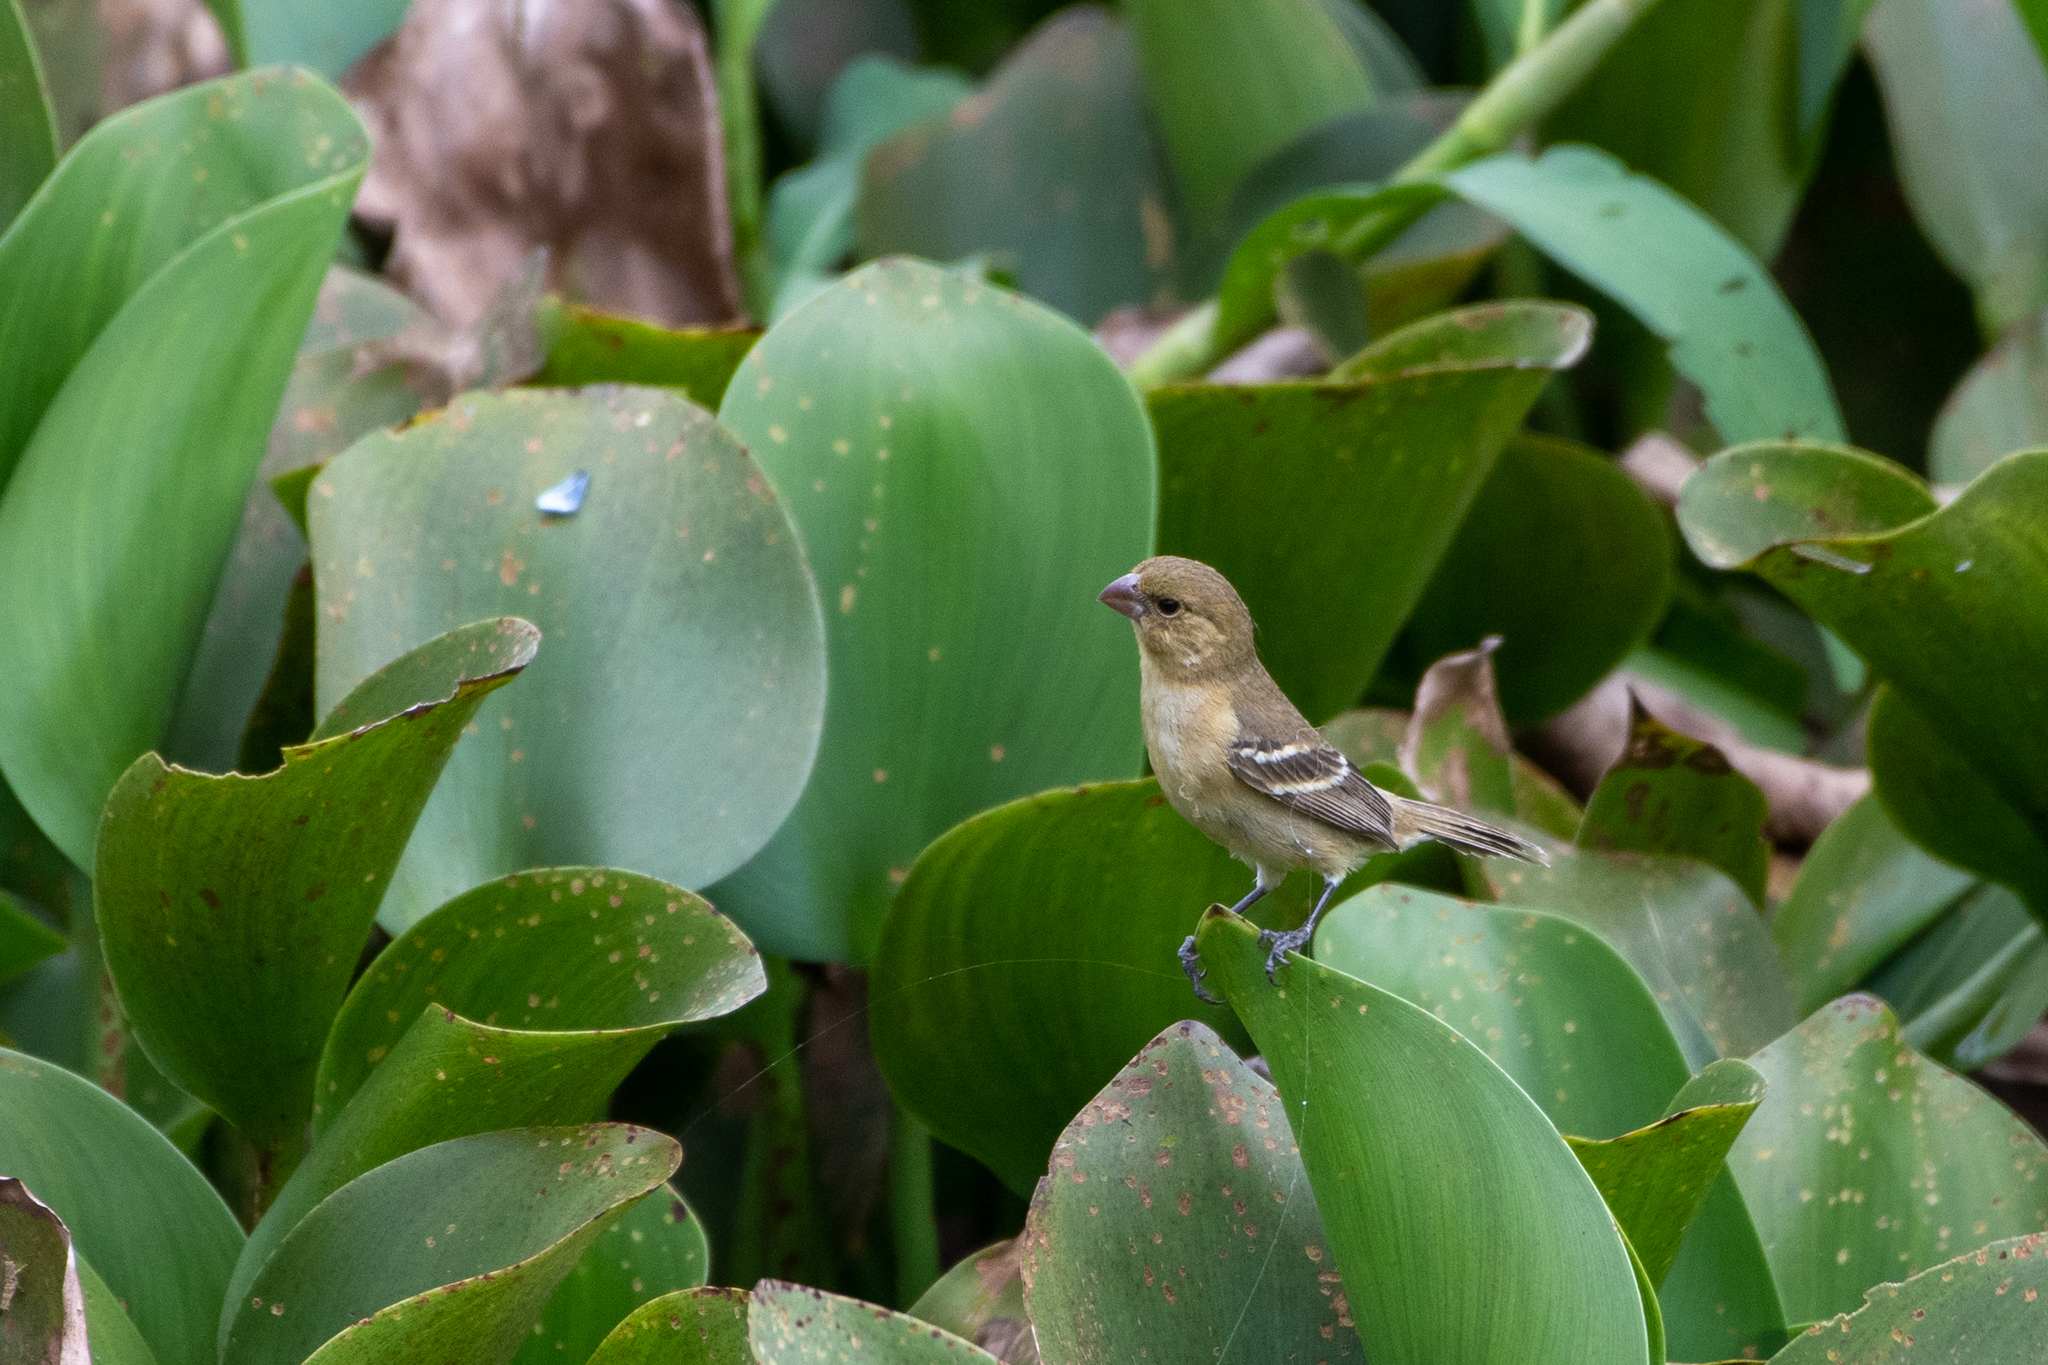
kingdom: Animalia
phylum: Chordata
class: Aves
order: Passeriformes
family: Thraupidae
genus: Sporophila
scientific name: Sporophila morelleti
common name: Morelet's seedeater
